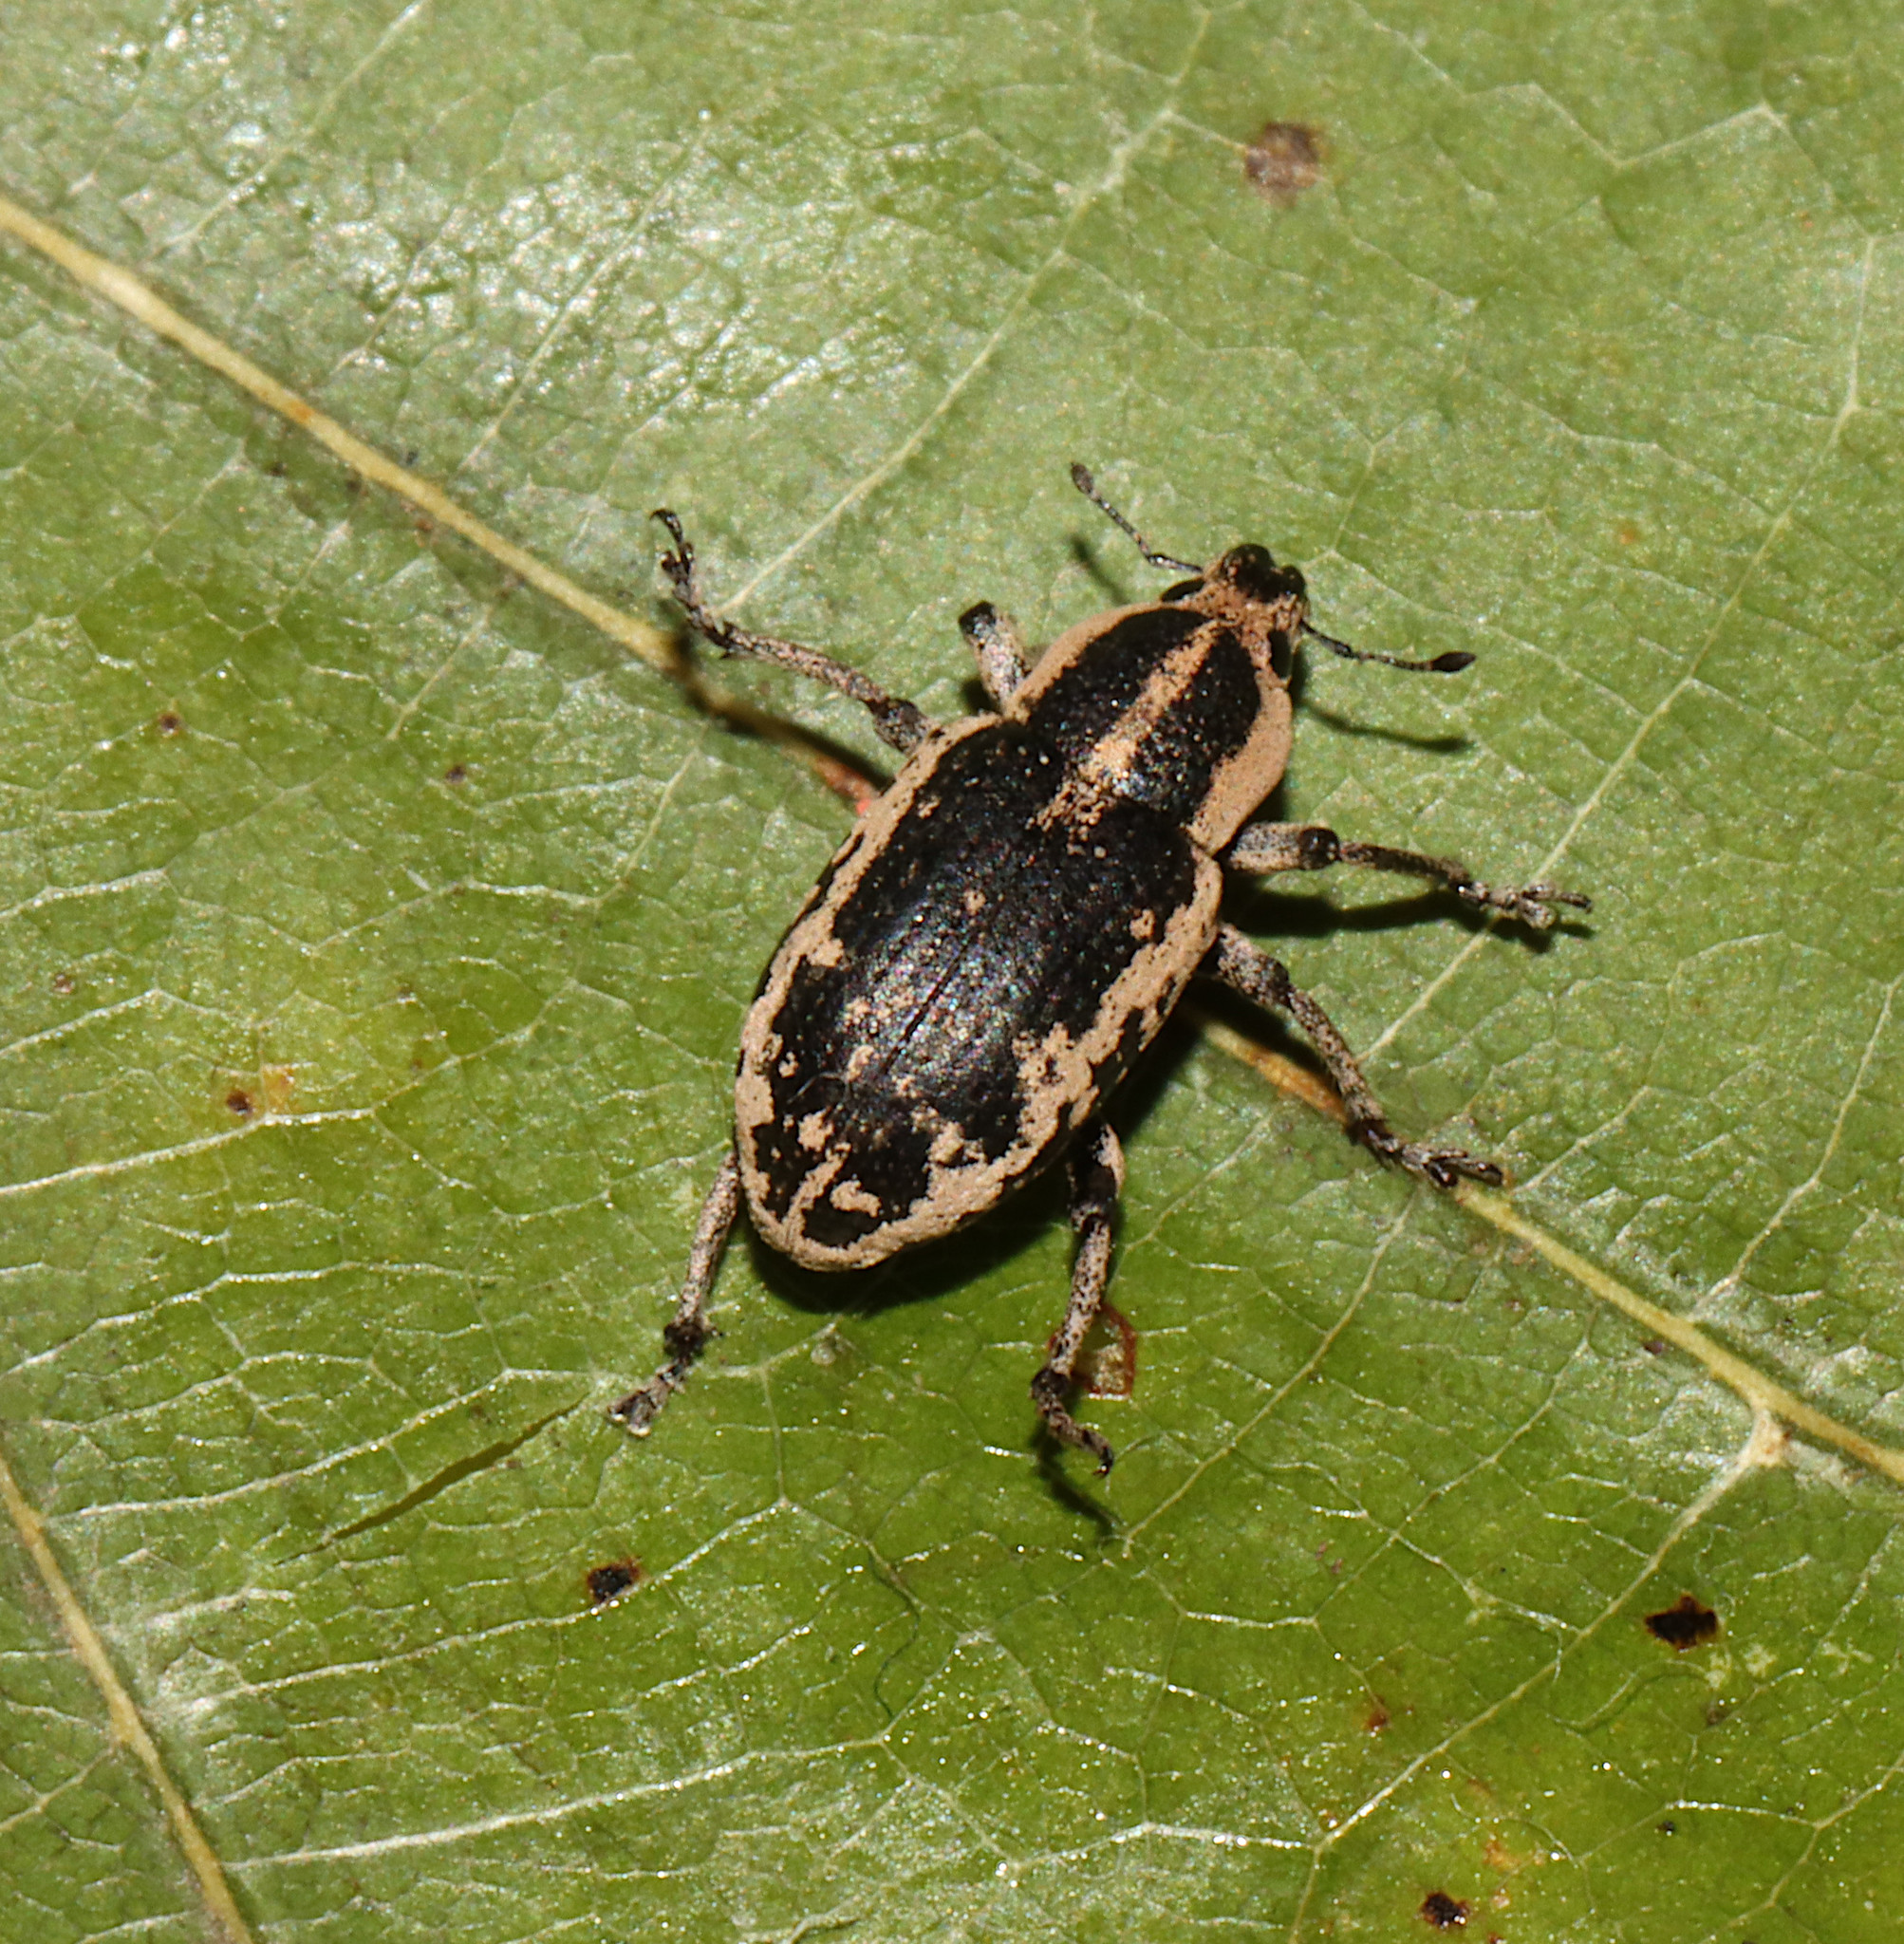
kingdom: Animalia
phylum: Arthropoda
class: Insecta
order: Coleoptera
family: Curculionidae
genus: Eudiagogus
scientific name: Eudiagogus rosenschoeldi
